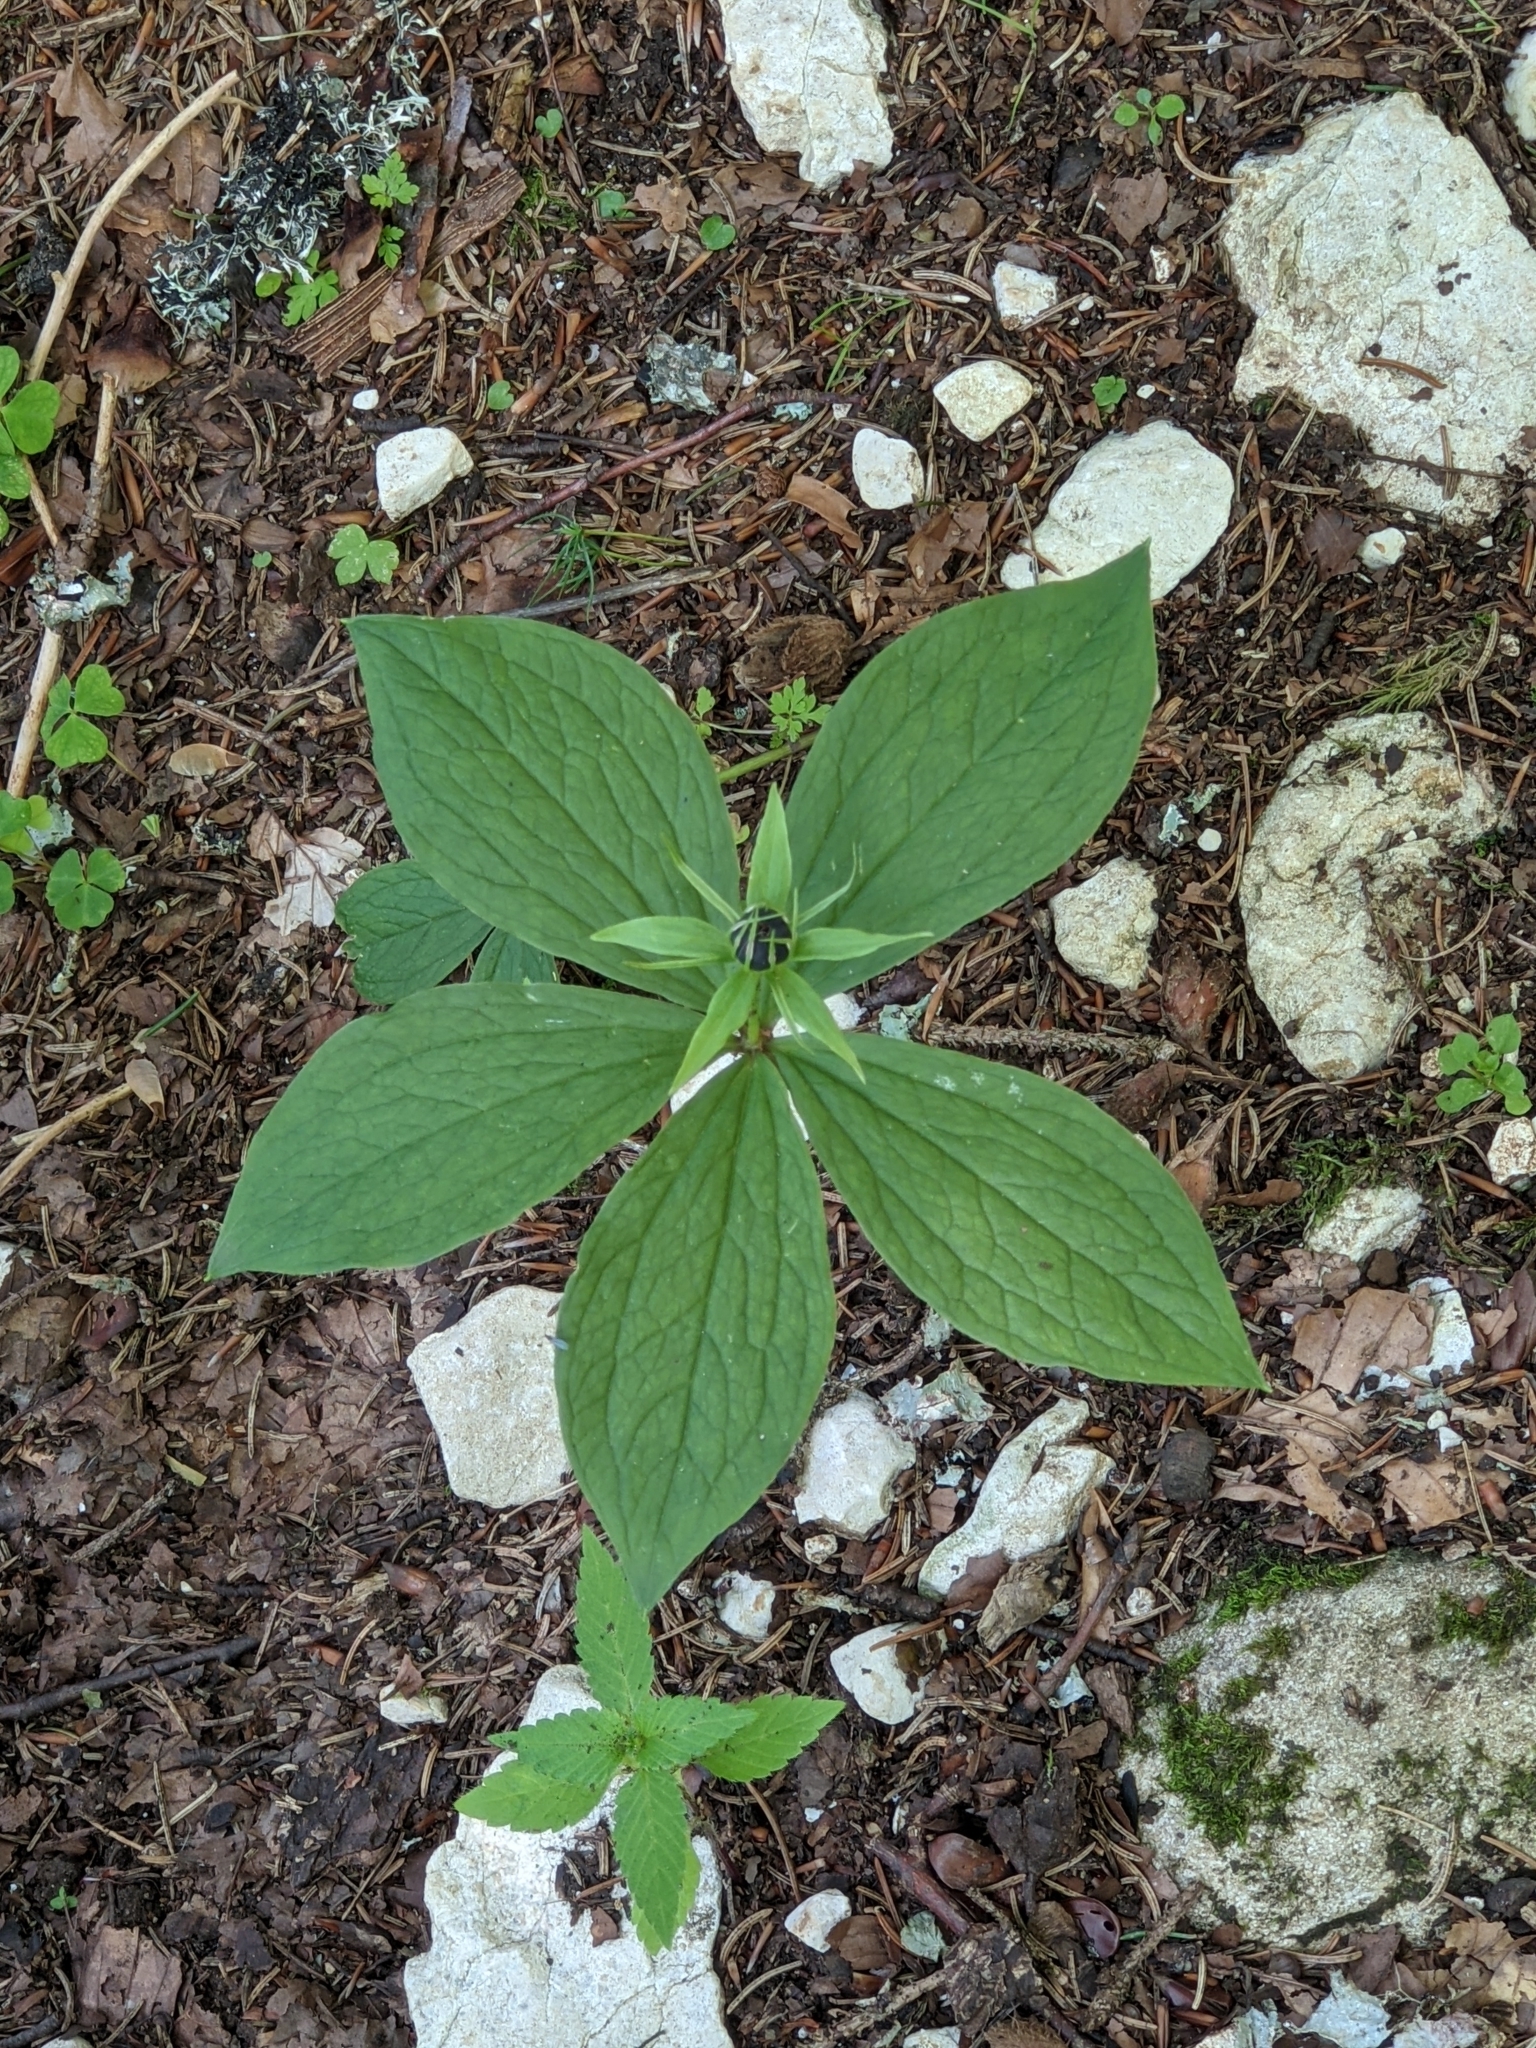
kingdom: Plantae
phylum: Tracheophyta
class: Liliopsida
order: Liliales
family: Melanthiaceae
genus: Paris
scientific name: Paris quadrifolia
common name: Herb-paris
